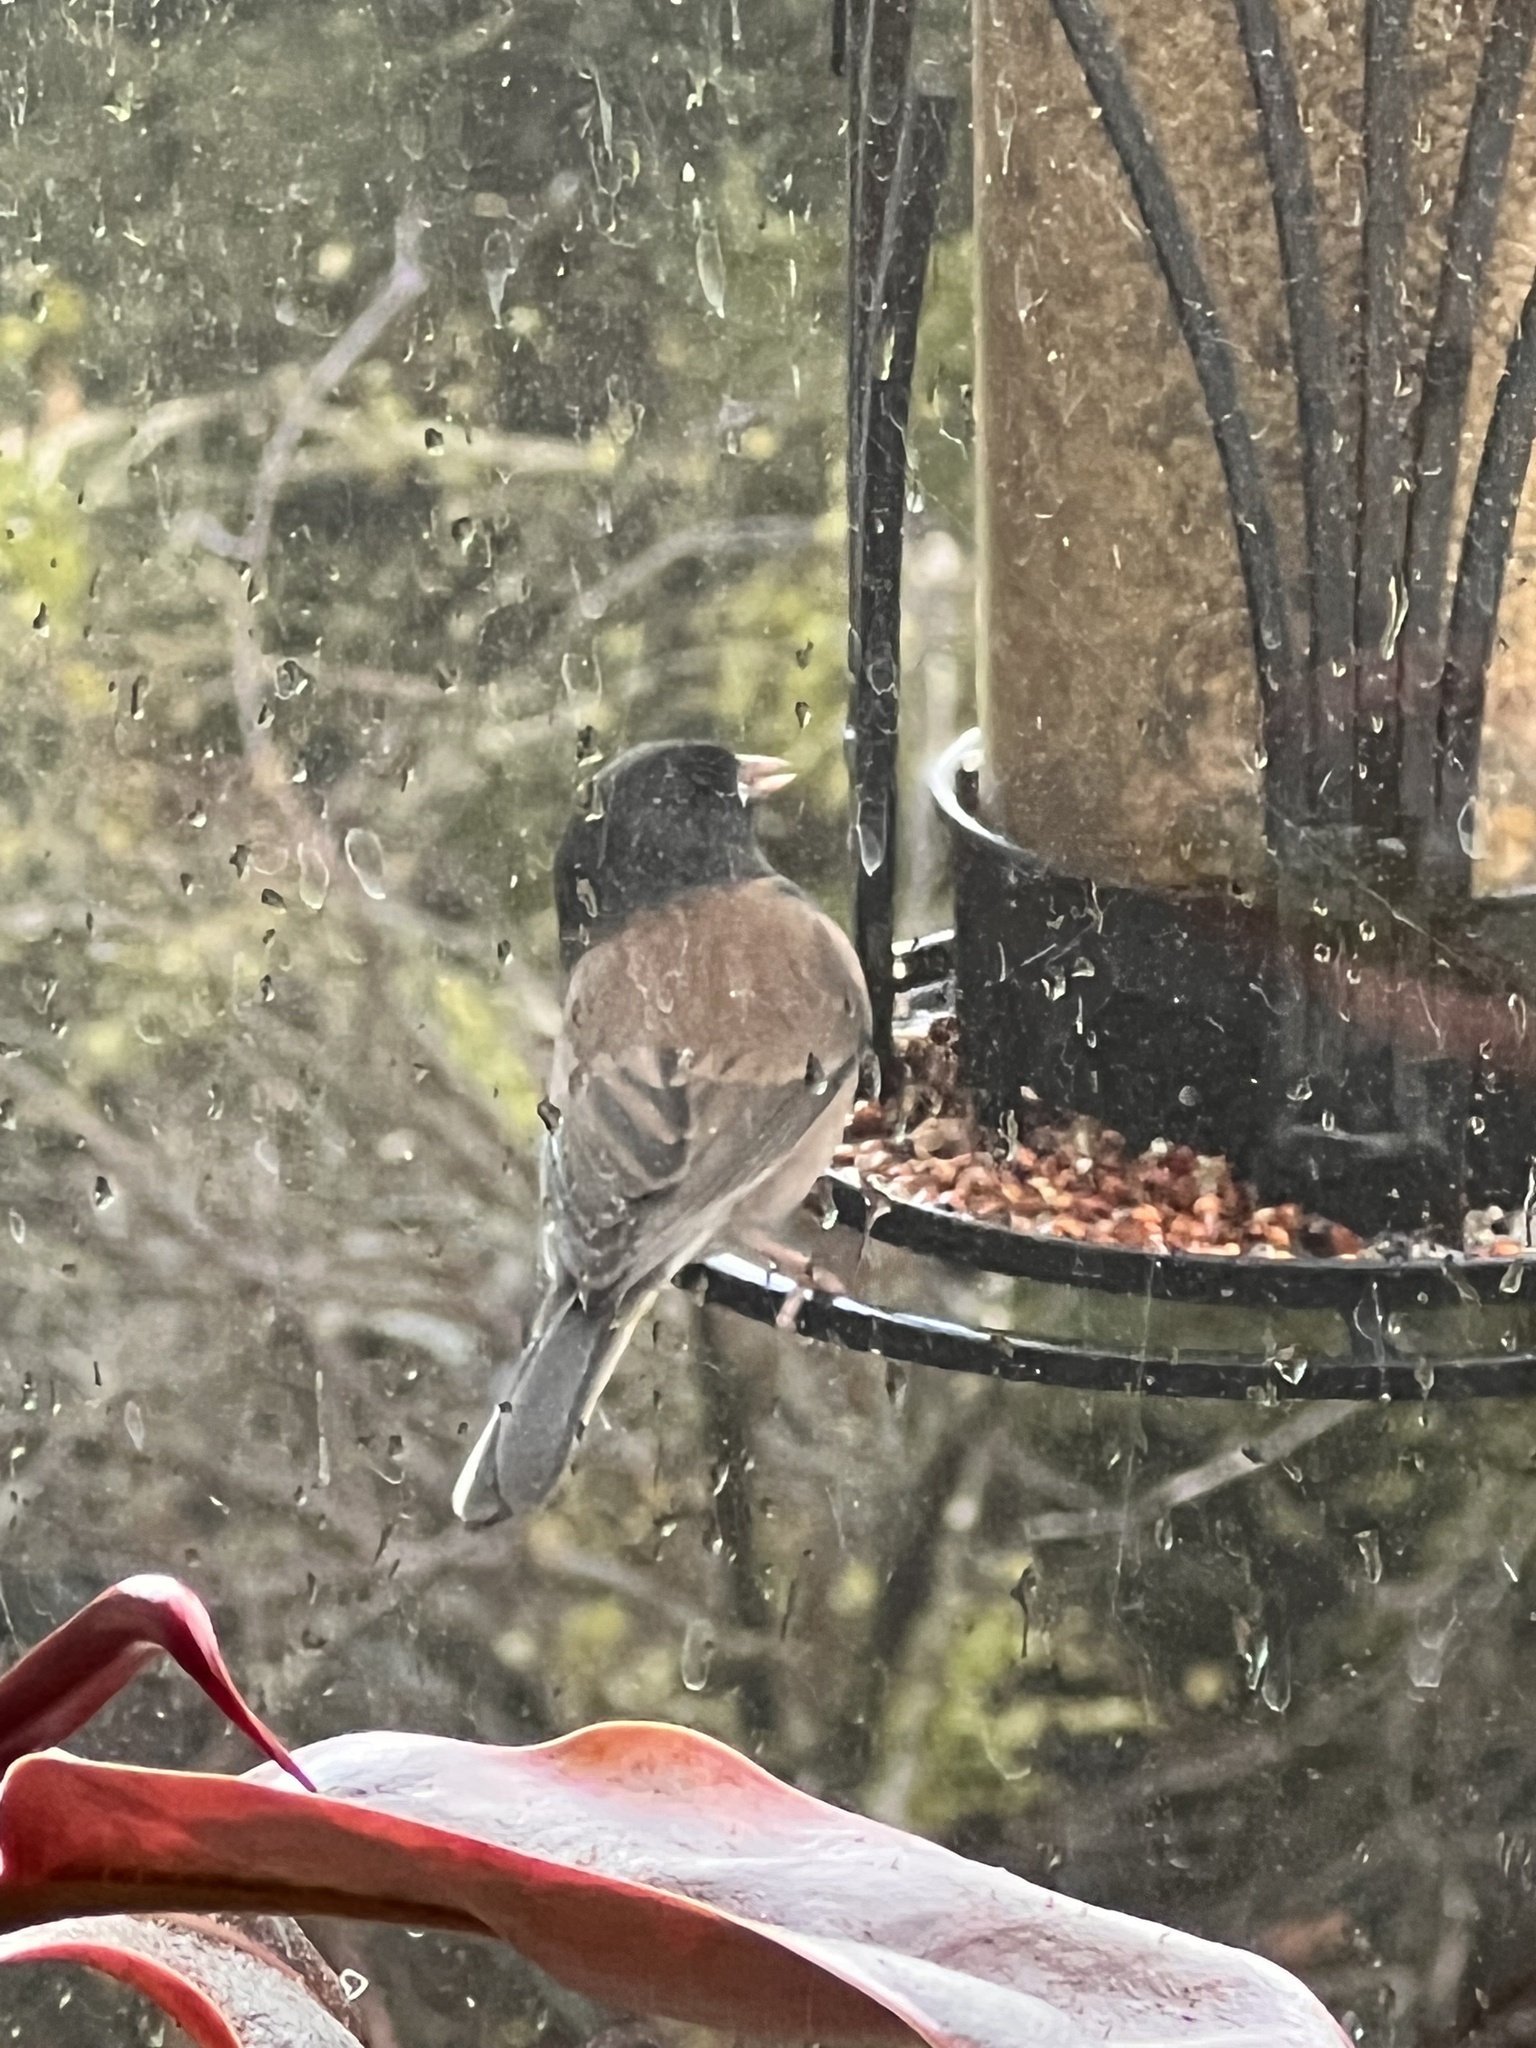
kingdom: Animalia
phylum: Chordata
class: Aves
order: Passeriformes
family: Passerellidae
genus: Junco
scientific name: Junco hyemalis
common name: Dark-eyed junco
